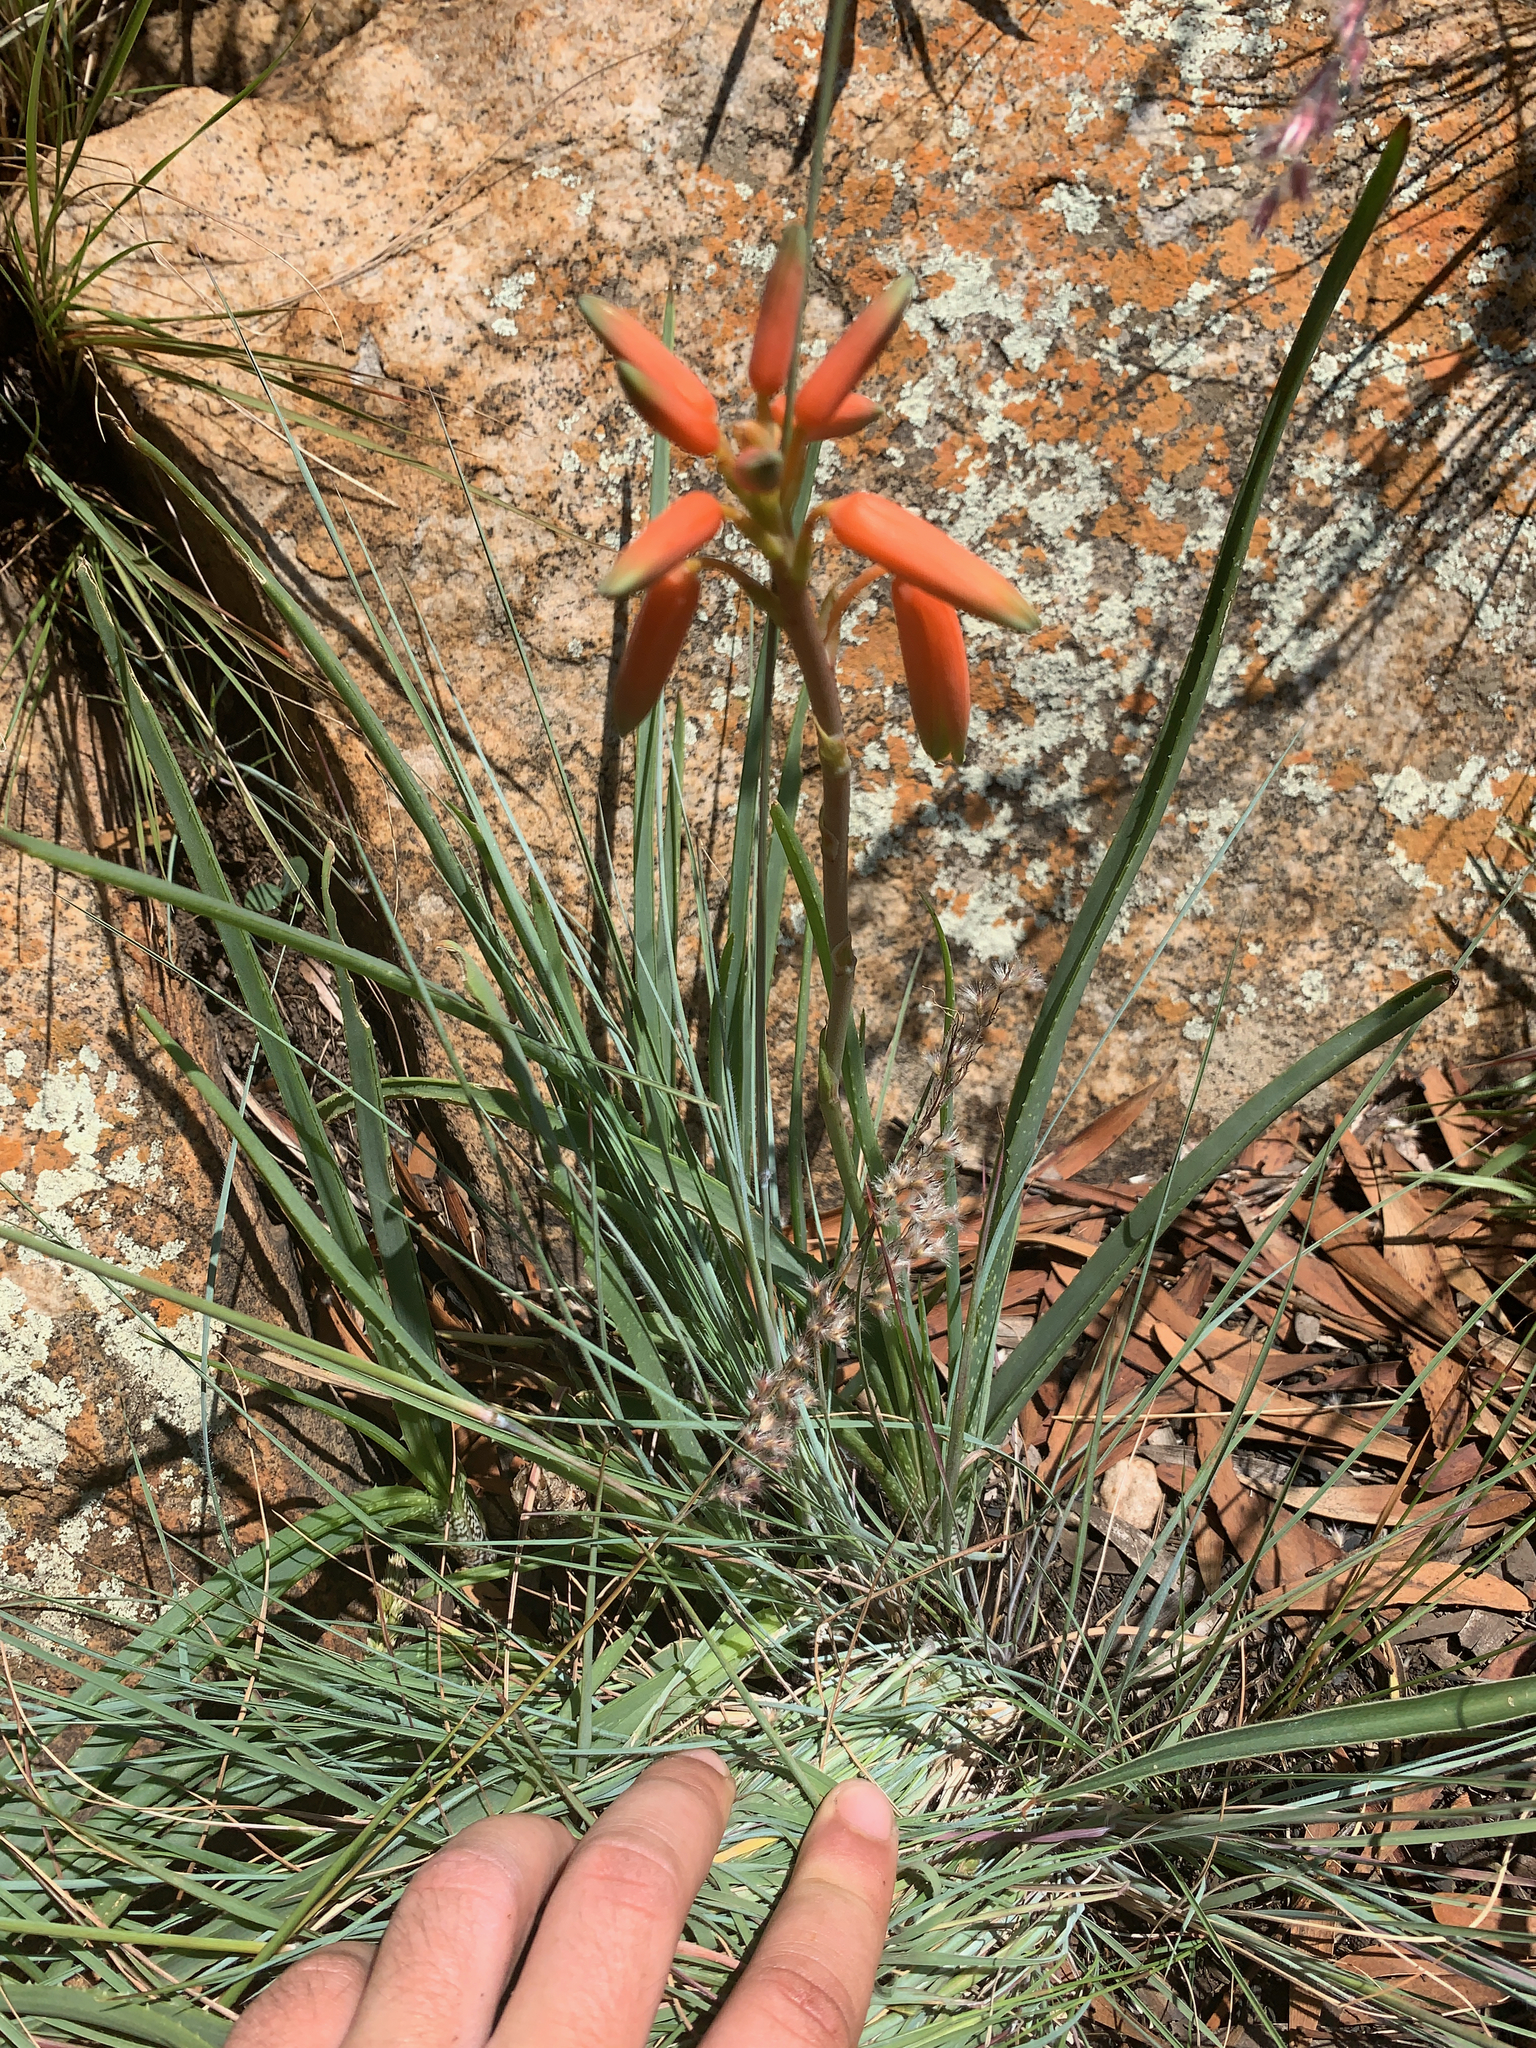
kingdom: Plantae
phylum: Tracheophyta
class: Liliopsida
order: Asparagales
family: Asphodelaceae
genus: Aloe
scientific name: Aloe verecunda
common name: Grass aloe
